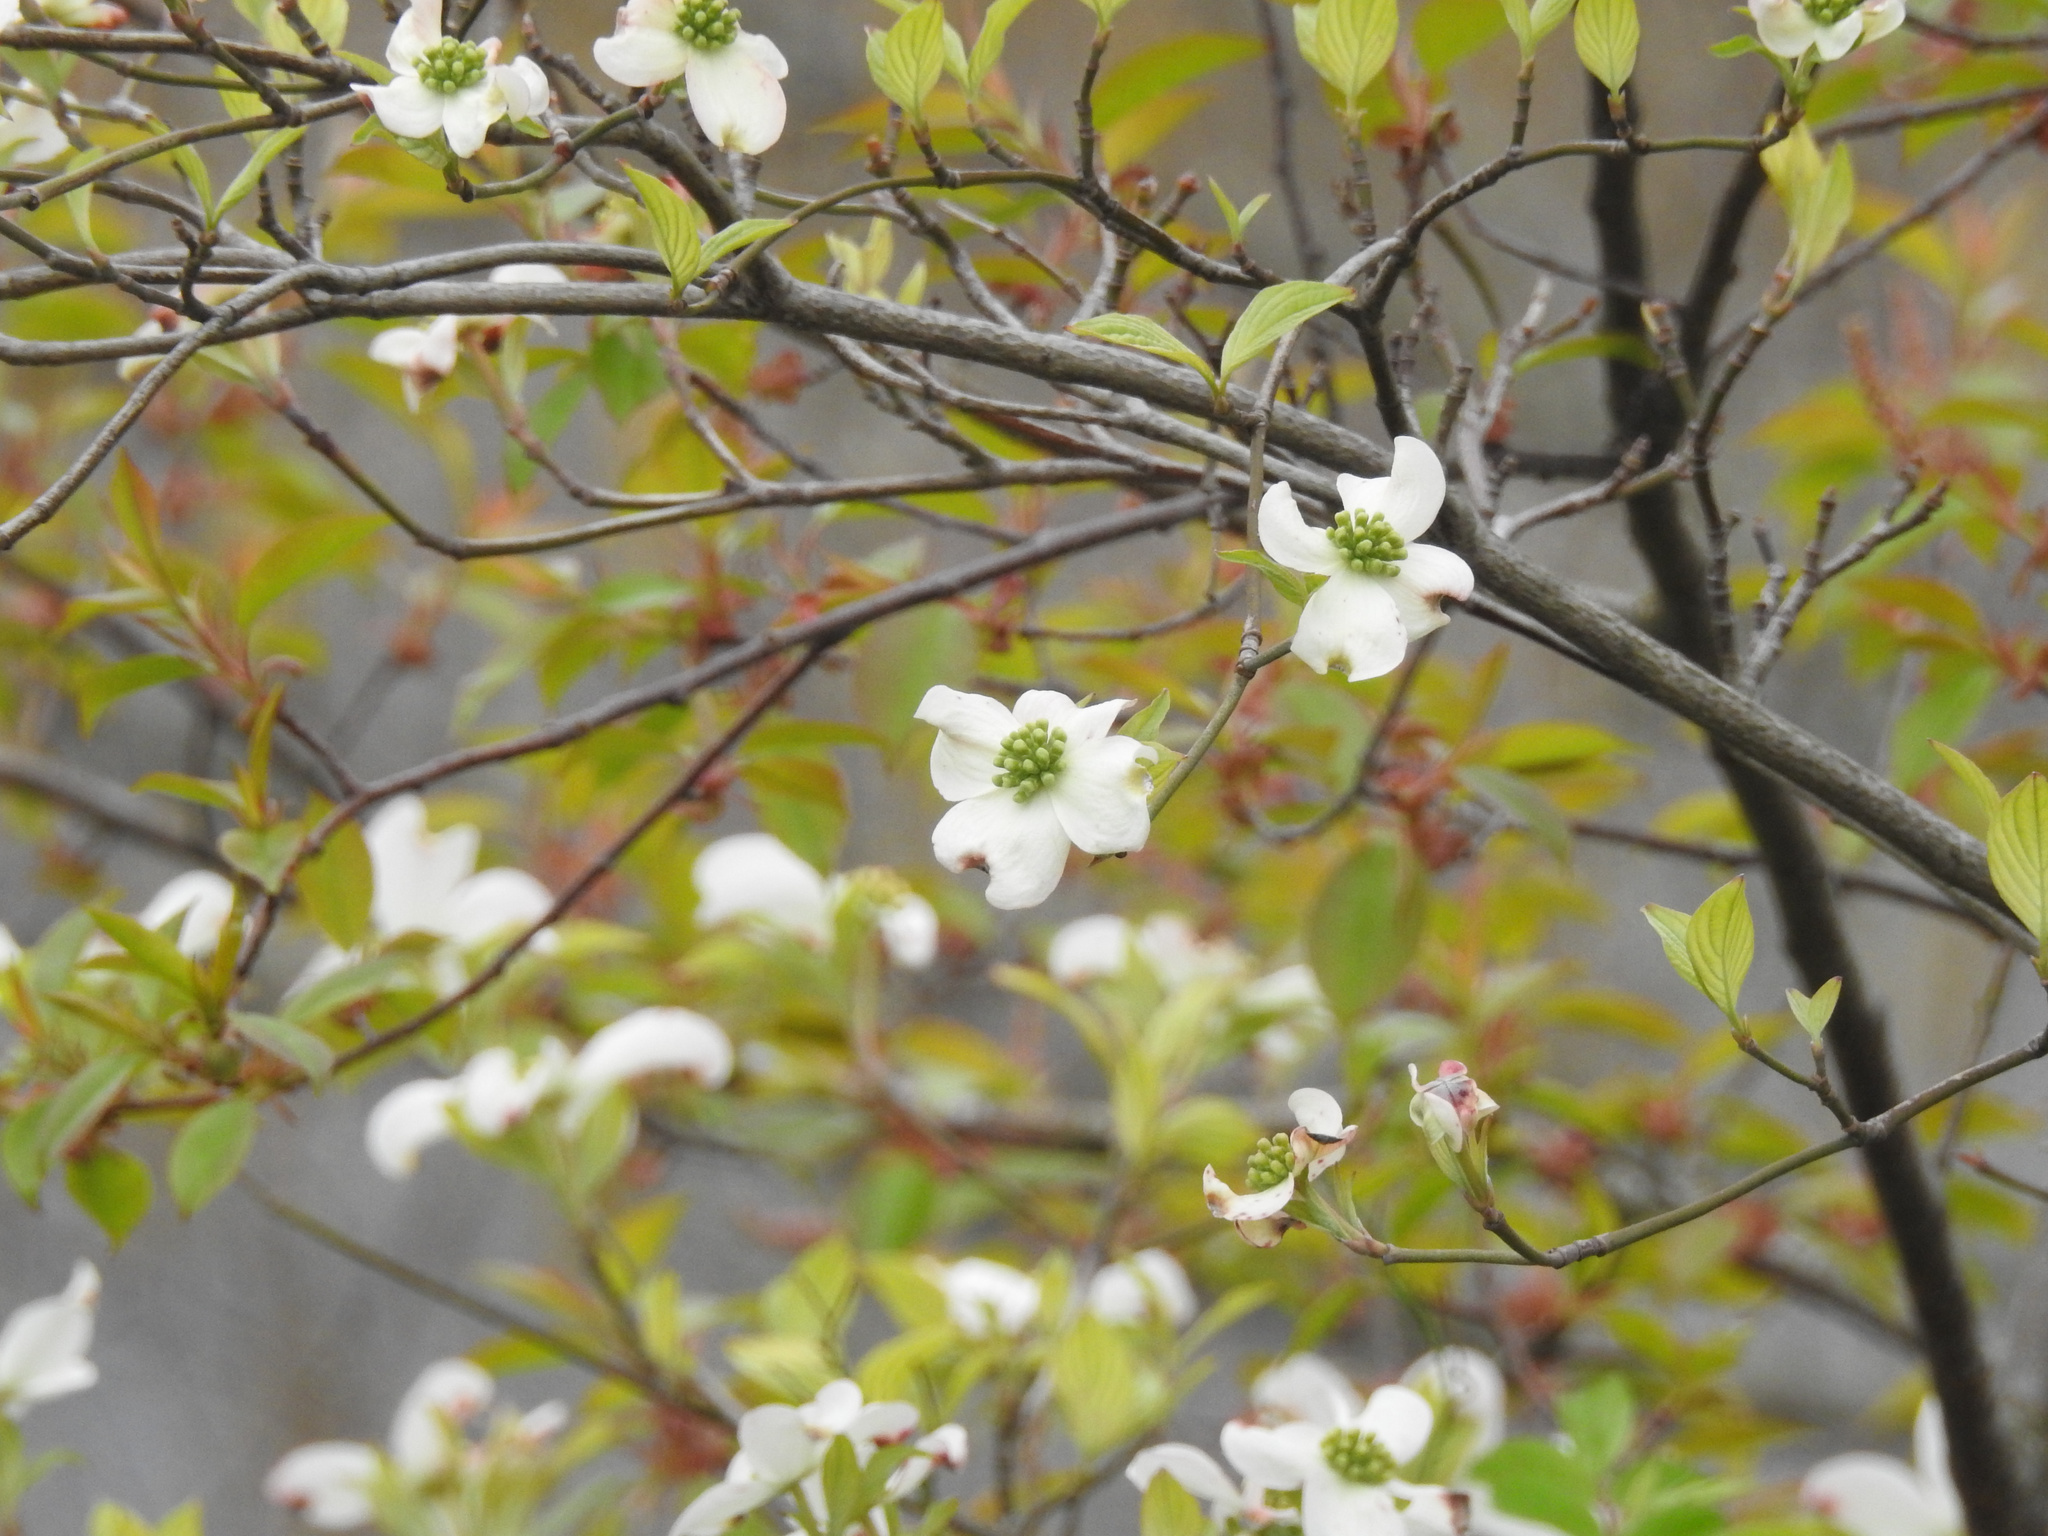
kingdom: Plantae
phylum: Tracheophyta
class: Magnoliopsida
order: Cornales
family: Cornaceae
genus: Cornus
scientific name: Cornus florida
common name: Flowering dogwood
